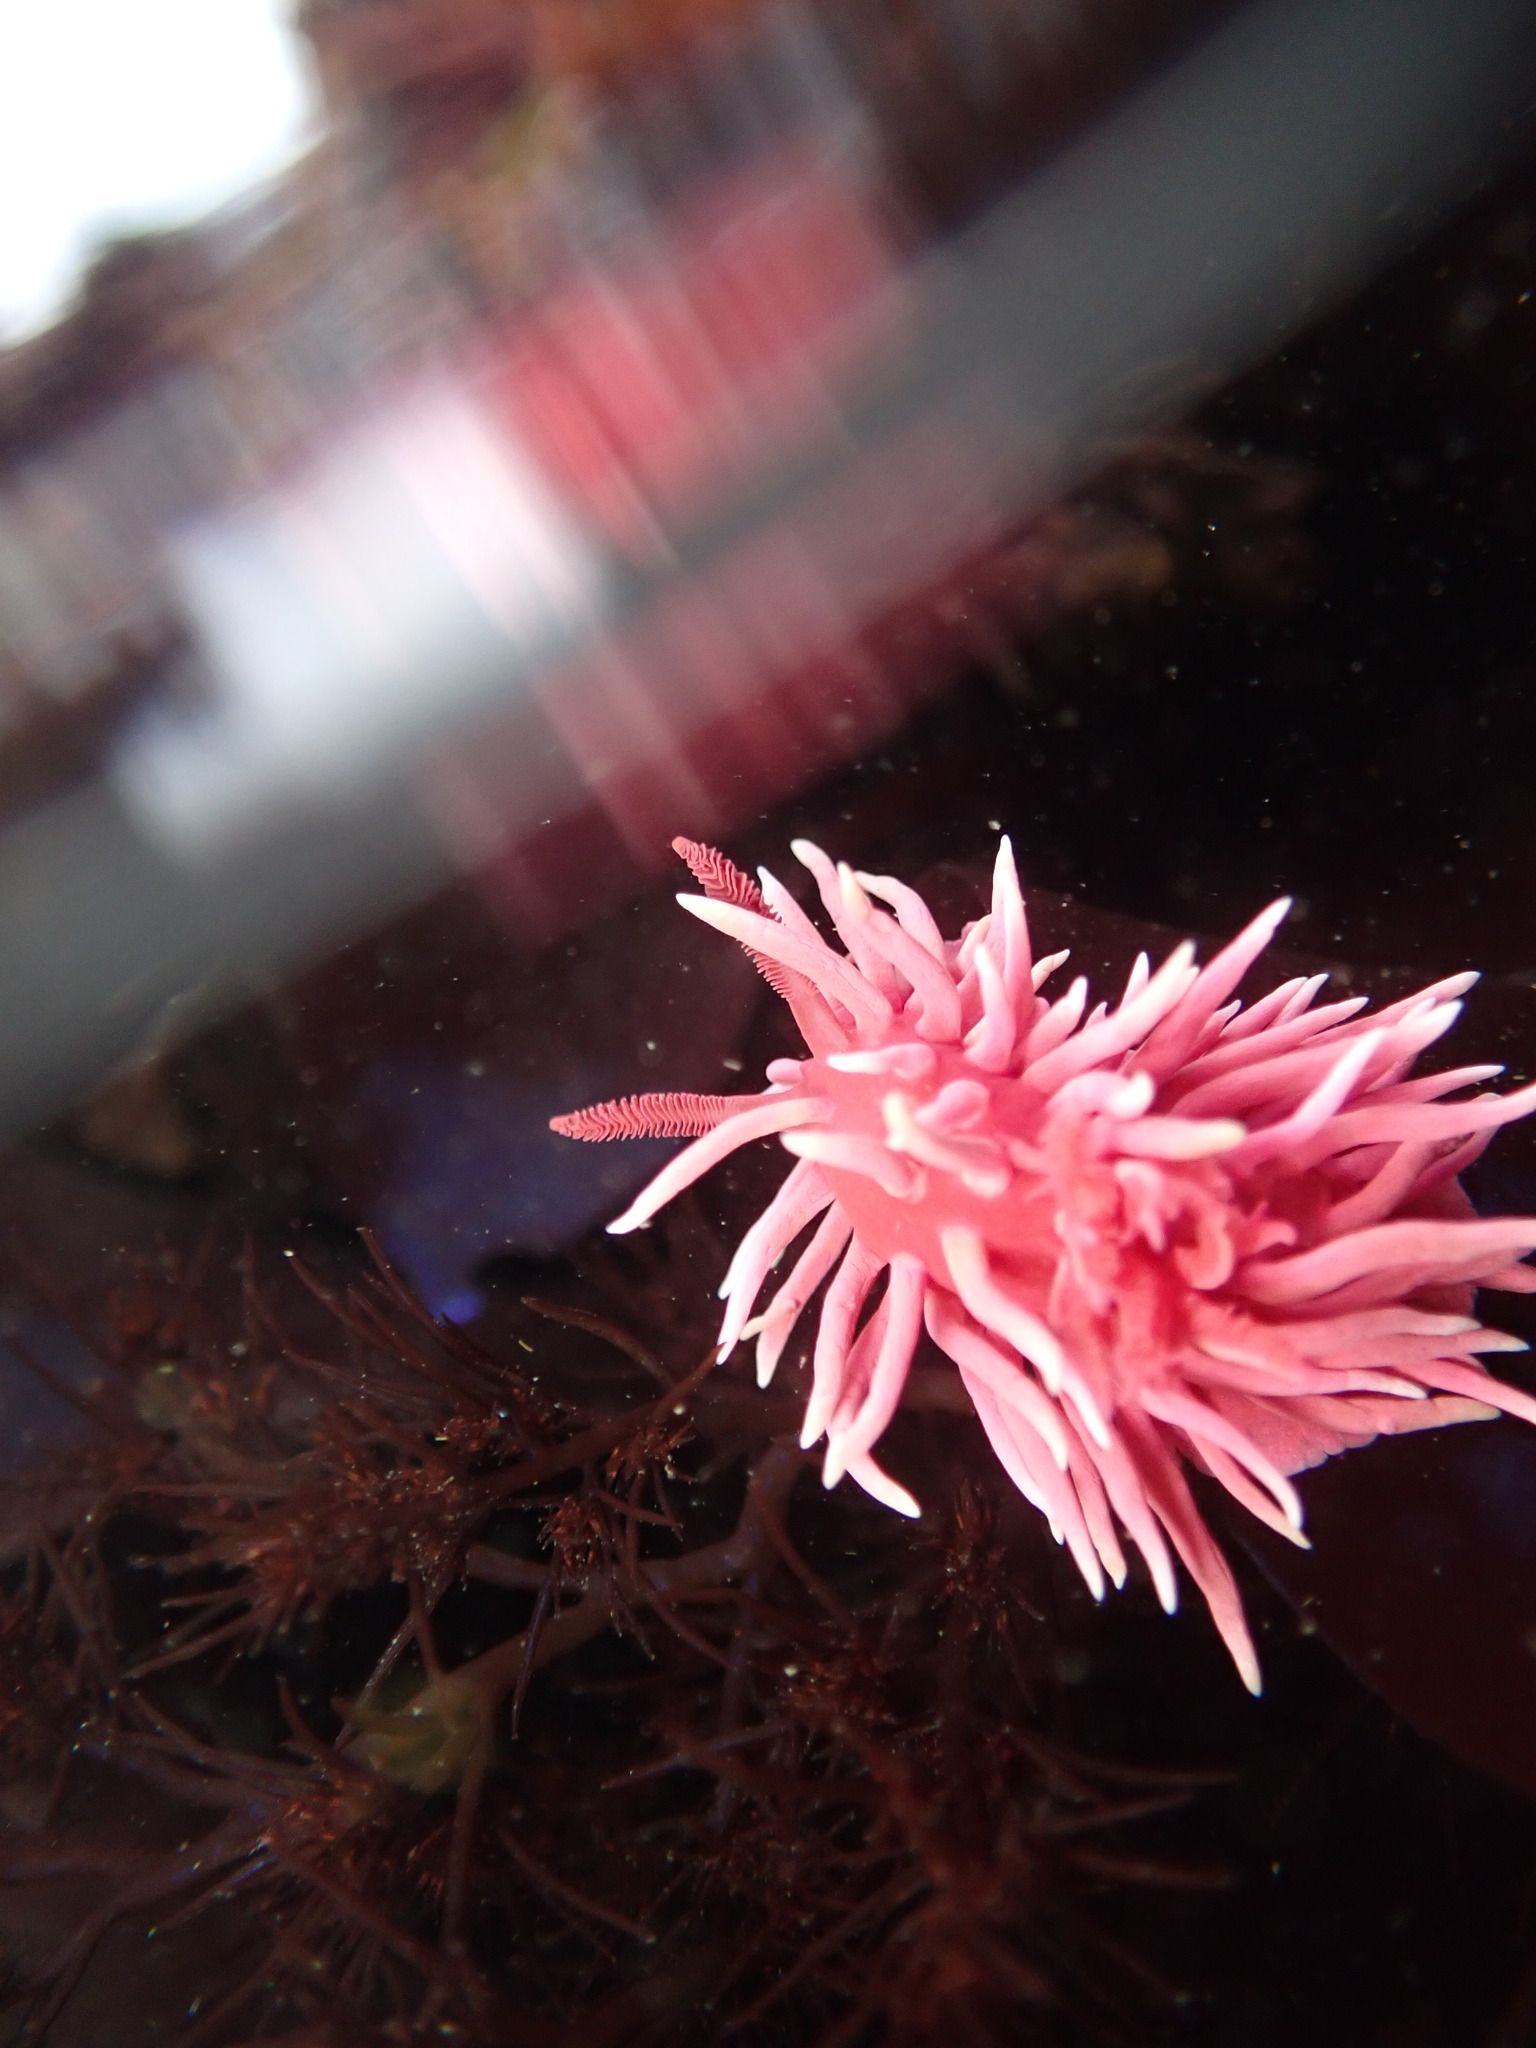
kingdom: Animalia
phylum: Mollusca
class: Gastropoda
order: Nudibranchia
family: Goniodorididae
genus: Okenia
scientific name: Okenia
